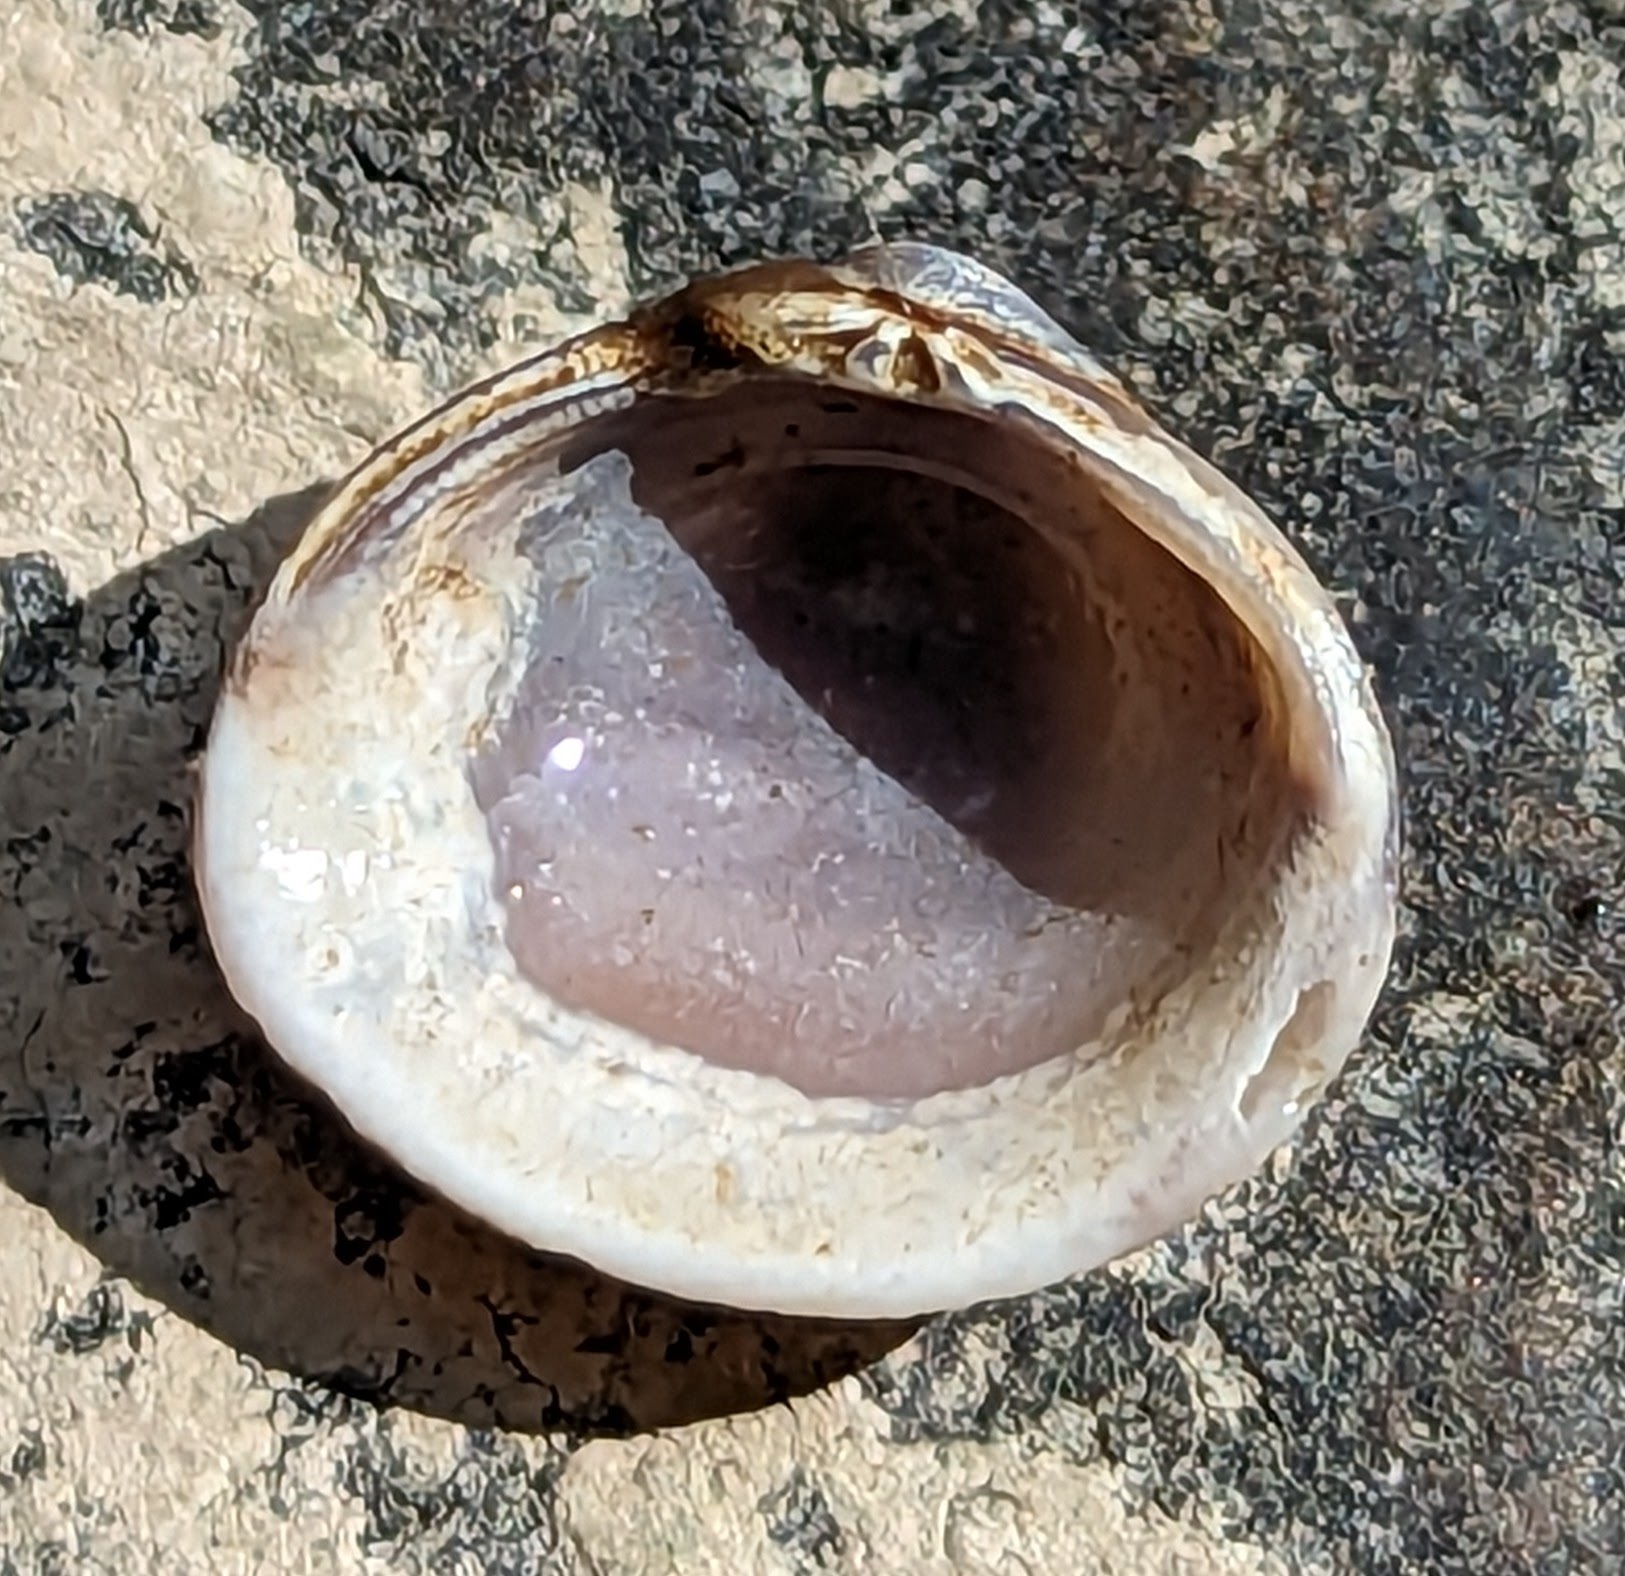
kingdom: Animalia
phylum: Mollusca
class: Bivalvia
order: Venerida
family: Cyrenidae
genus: Corbicula
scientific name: Corbicula fluminea
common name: Asian clam
